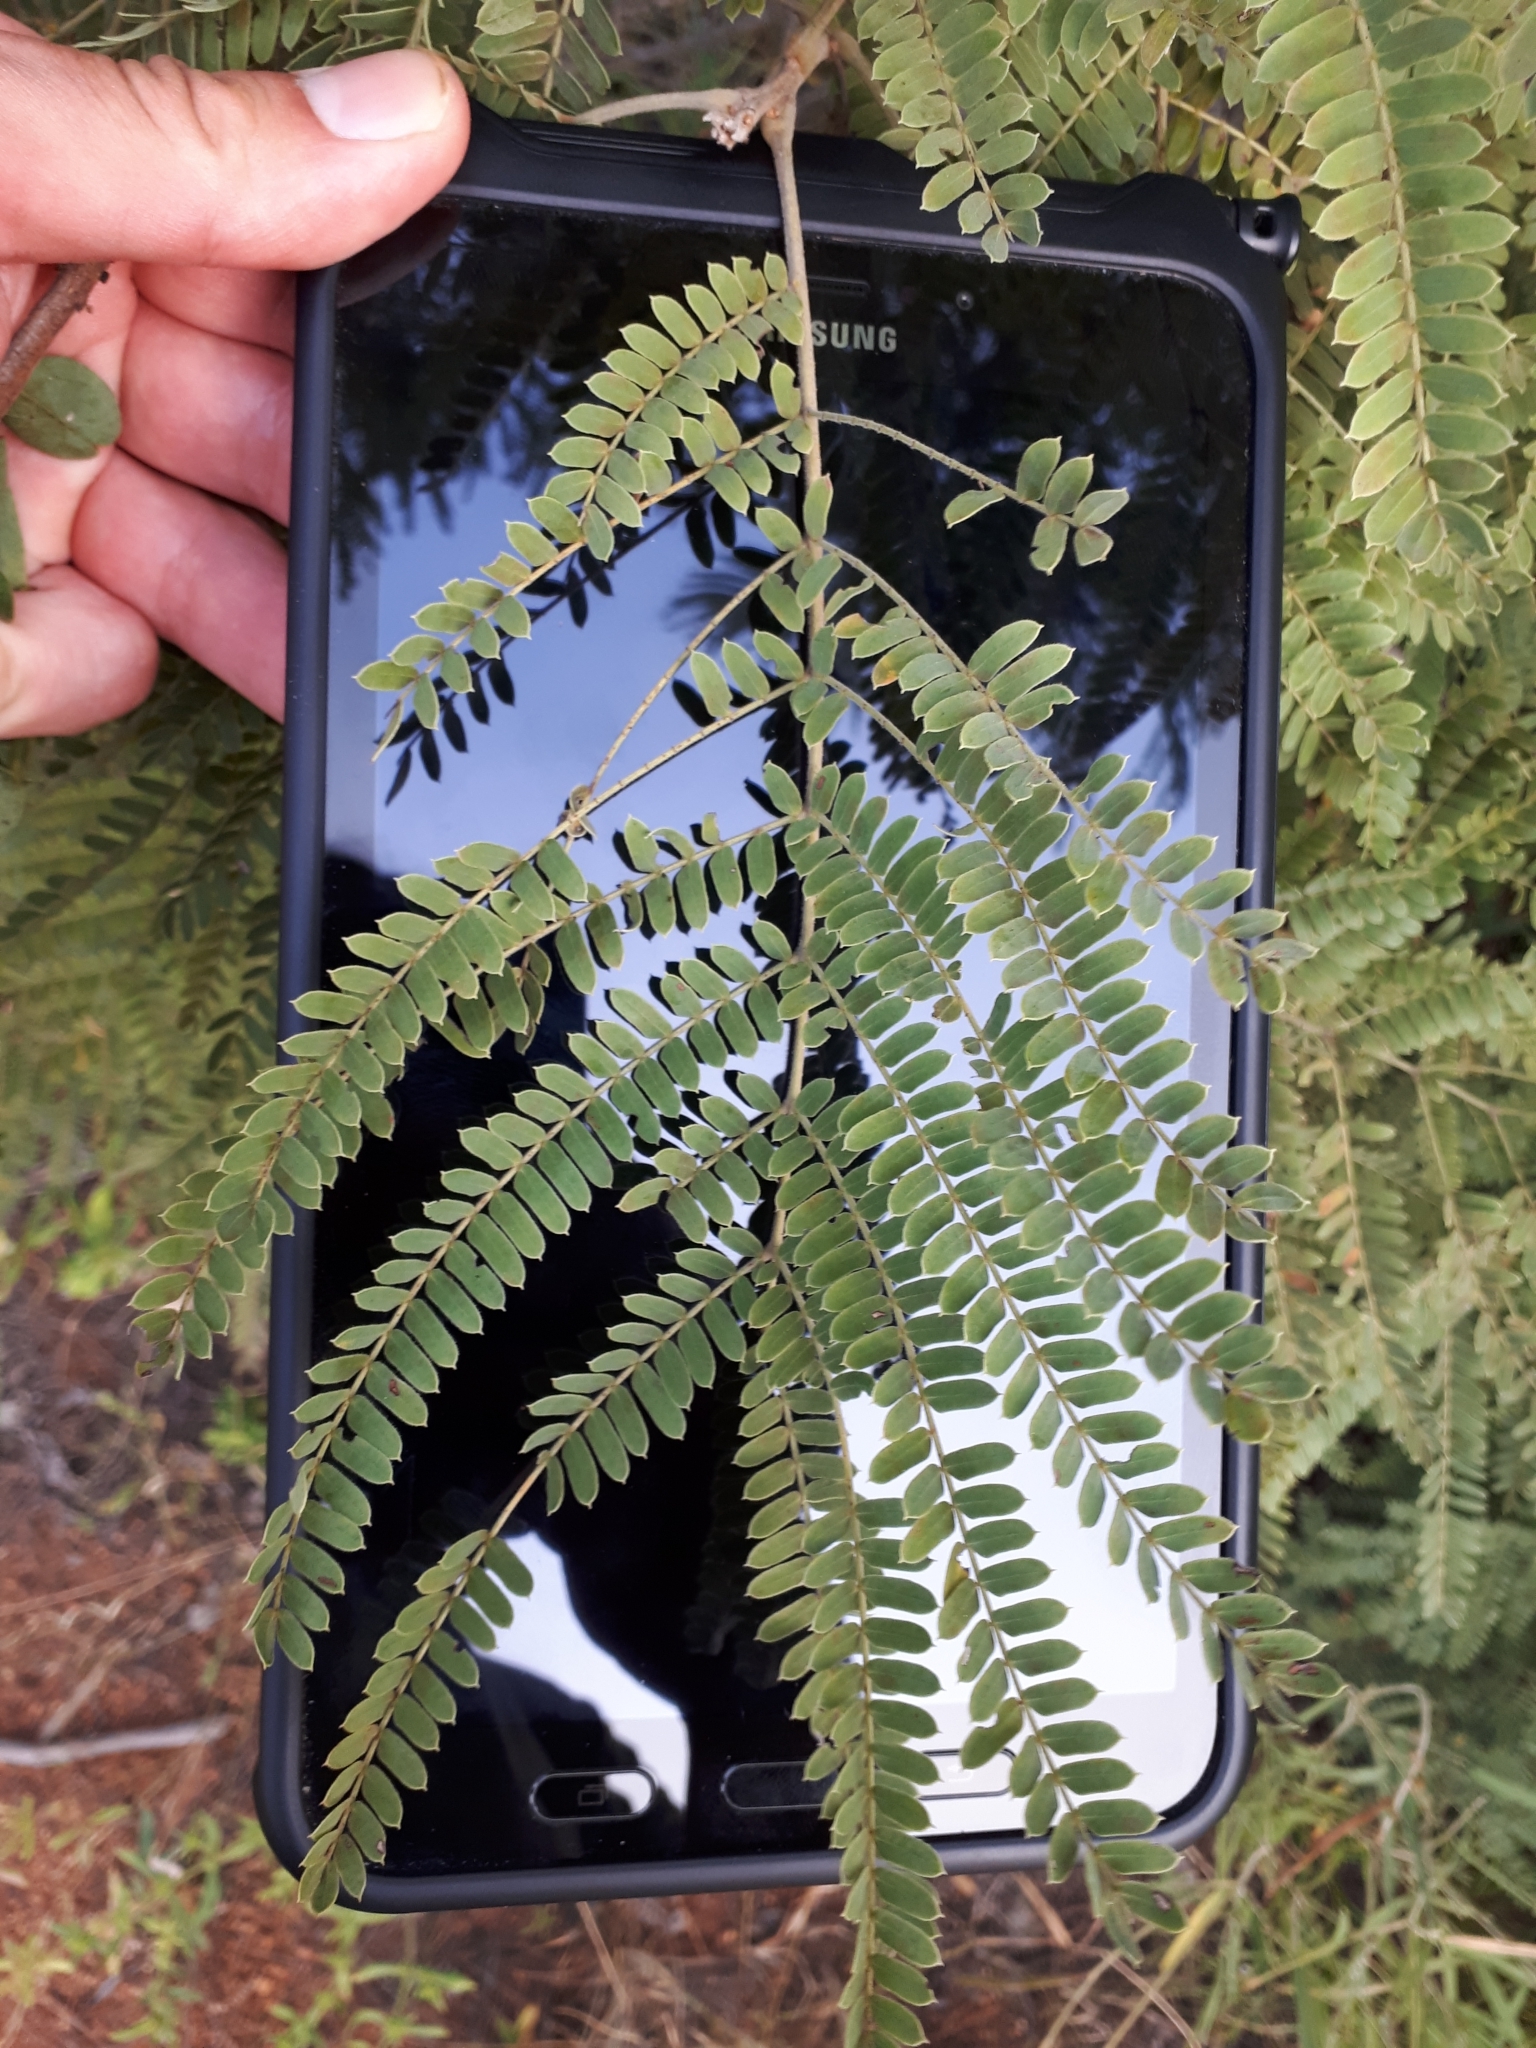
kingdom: Plantae
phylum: Tracheophyta
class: Magnoliopsida
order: Fabales
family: Fabaceae
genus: Peltophorum
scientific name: Peltophorum africanum
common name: African black wattle
